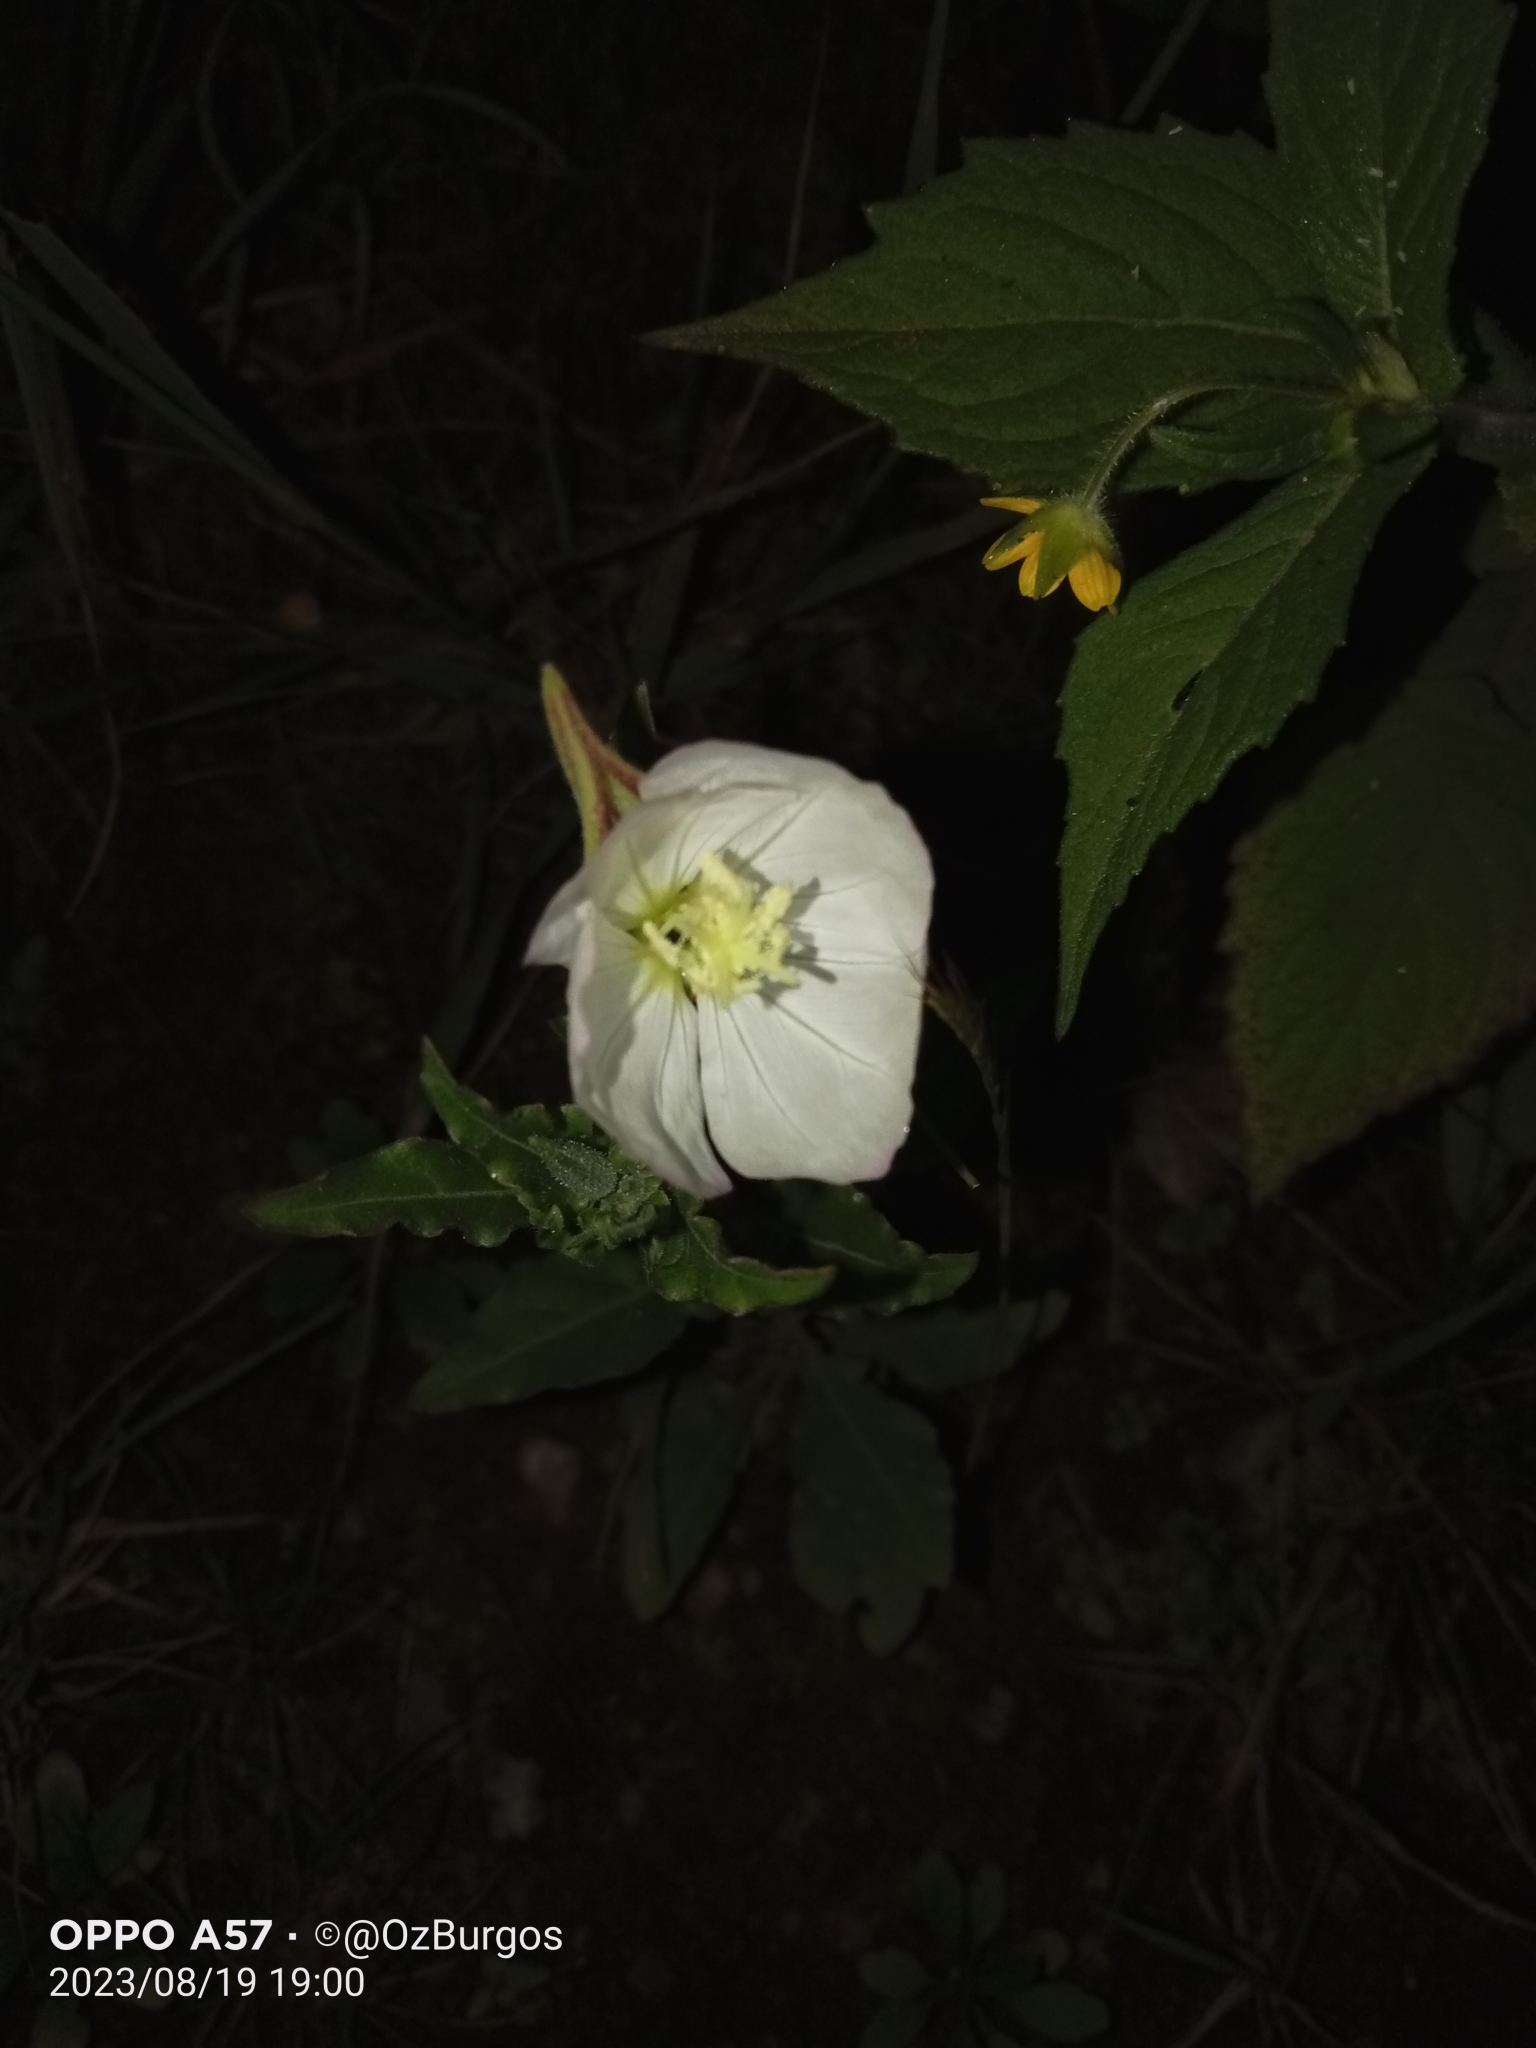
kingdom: Plantae
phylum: Tracheophyta
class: Magnoliopsida
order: Myrtales
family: Onagraceae
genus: Oenothera
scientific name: Oenothera tetraptera
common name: Four-wing evening-primrose
